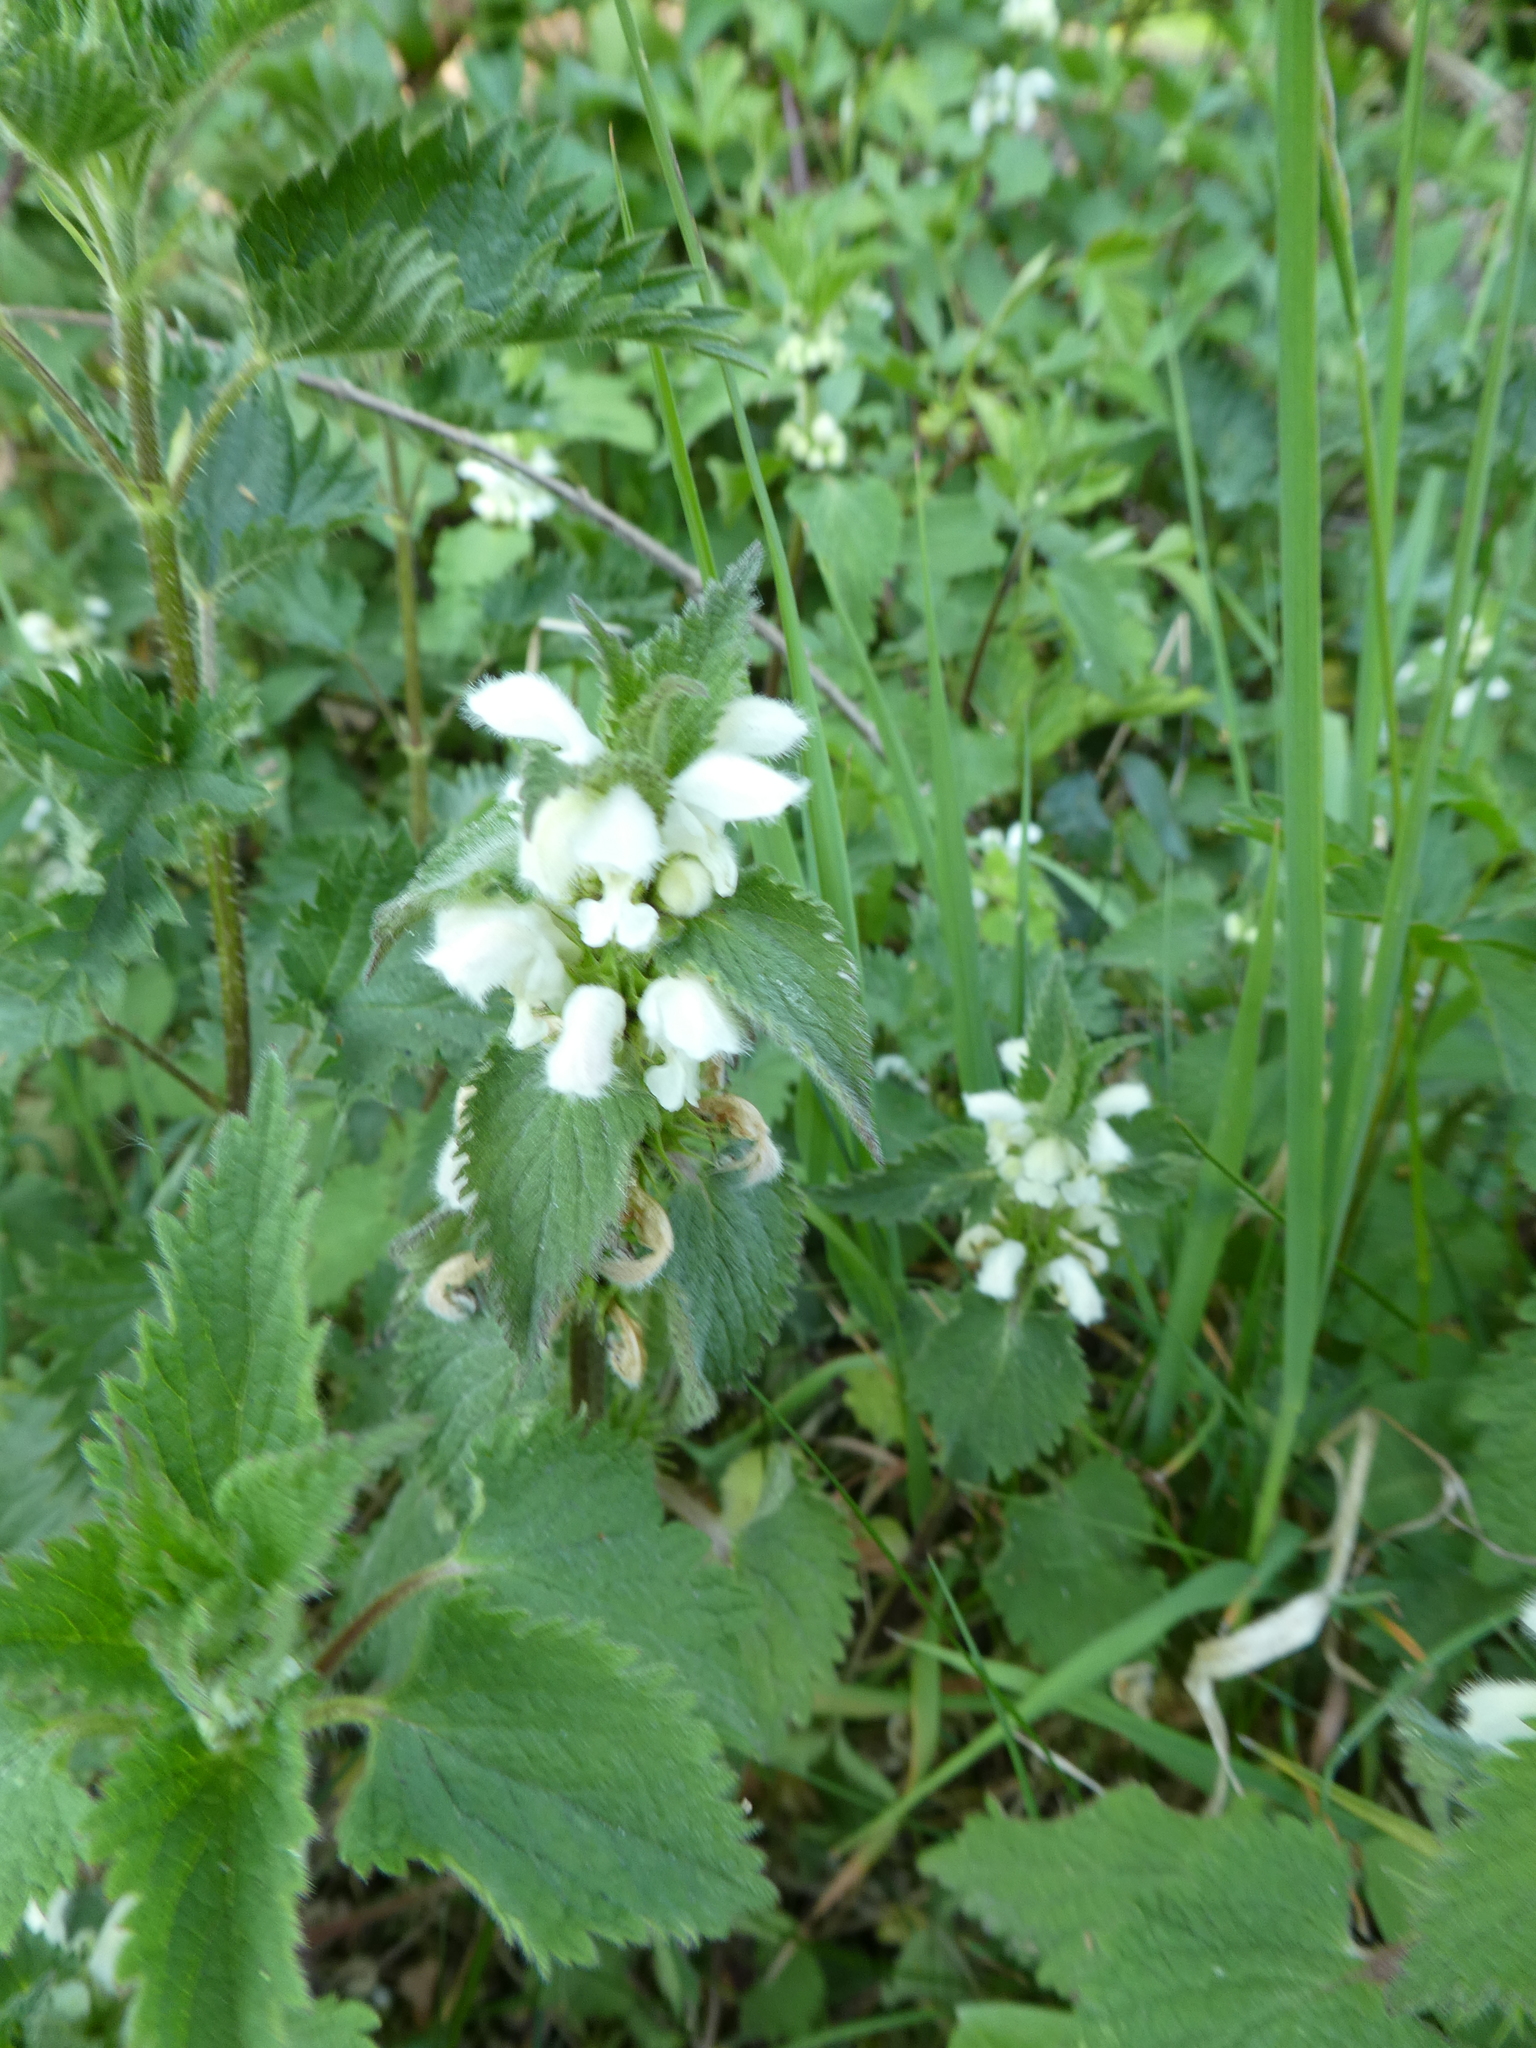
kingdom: Plantae
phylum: Tracheophyta
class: Magnoliopsida
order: Lamiales
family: Lamiaceae
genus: Lamium
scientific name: Lamium album
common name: White dead-nettle
